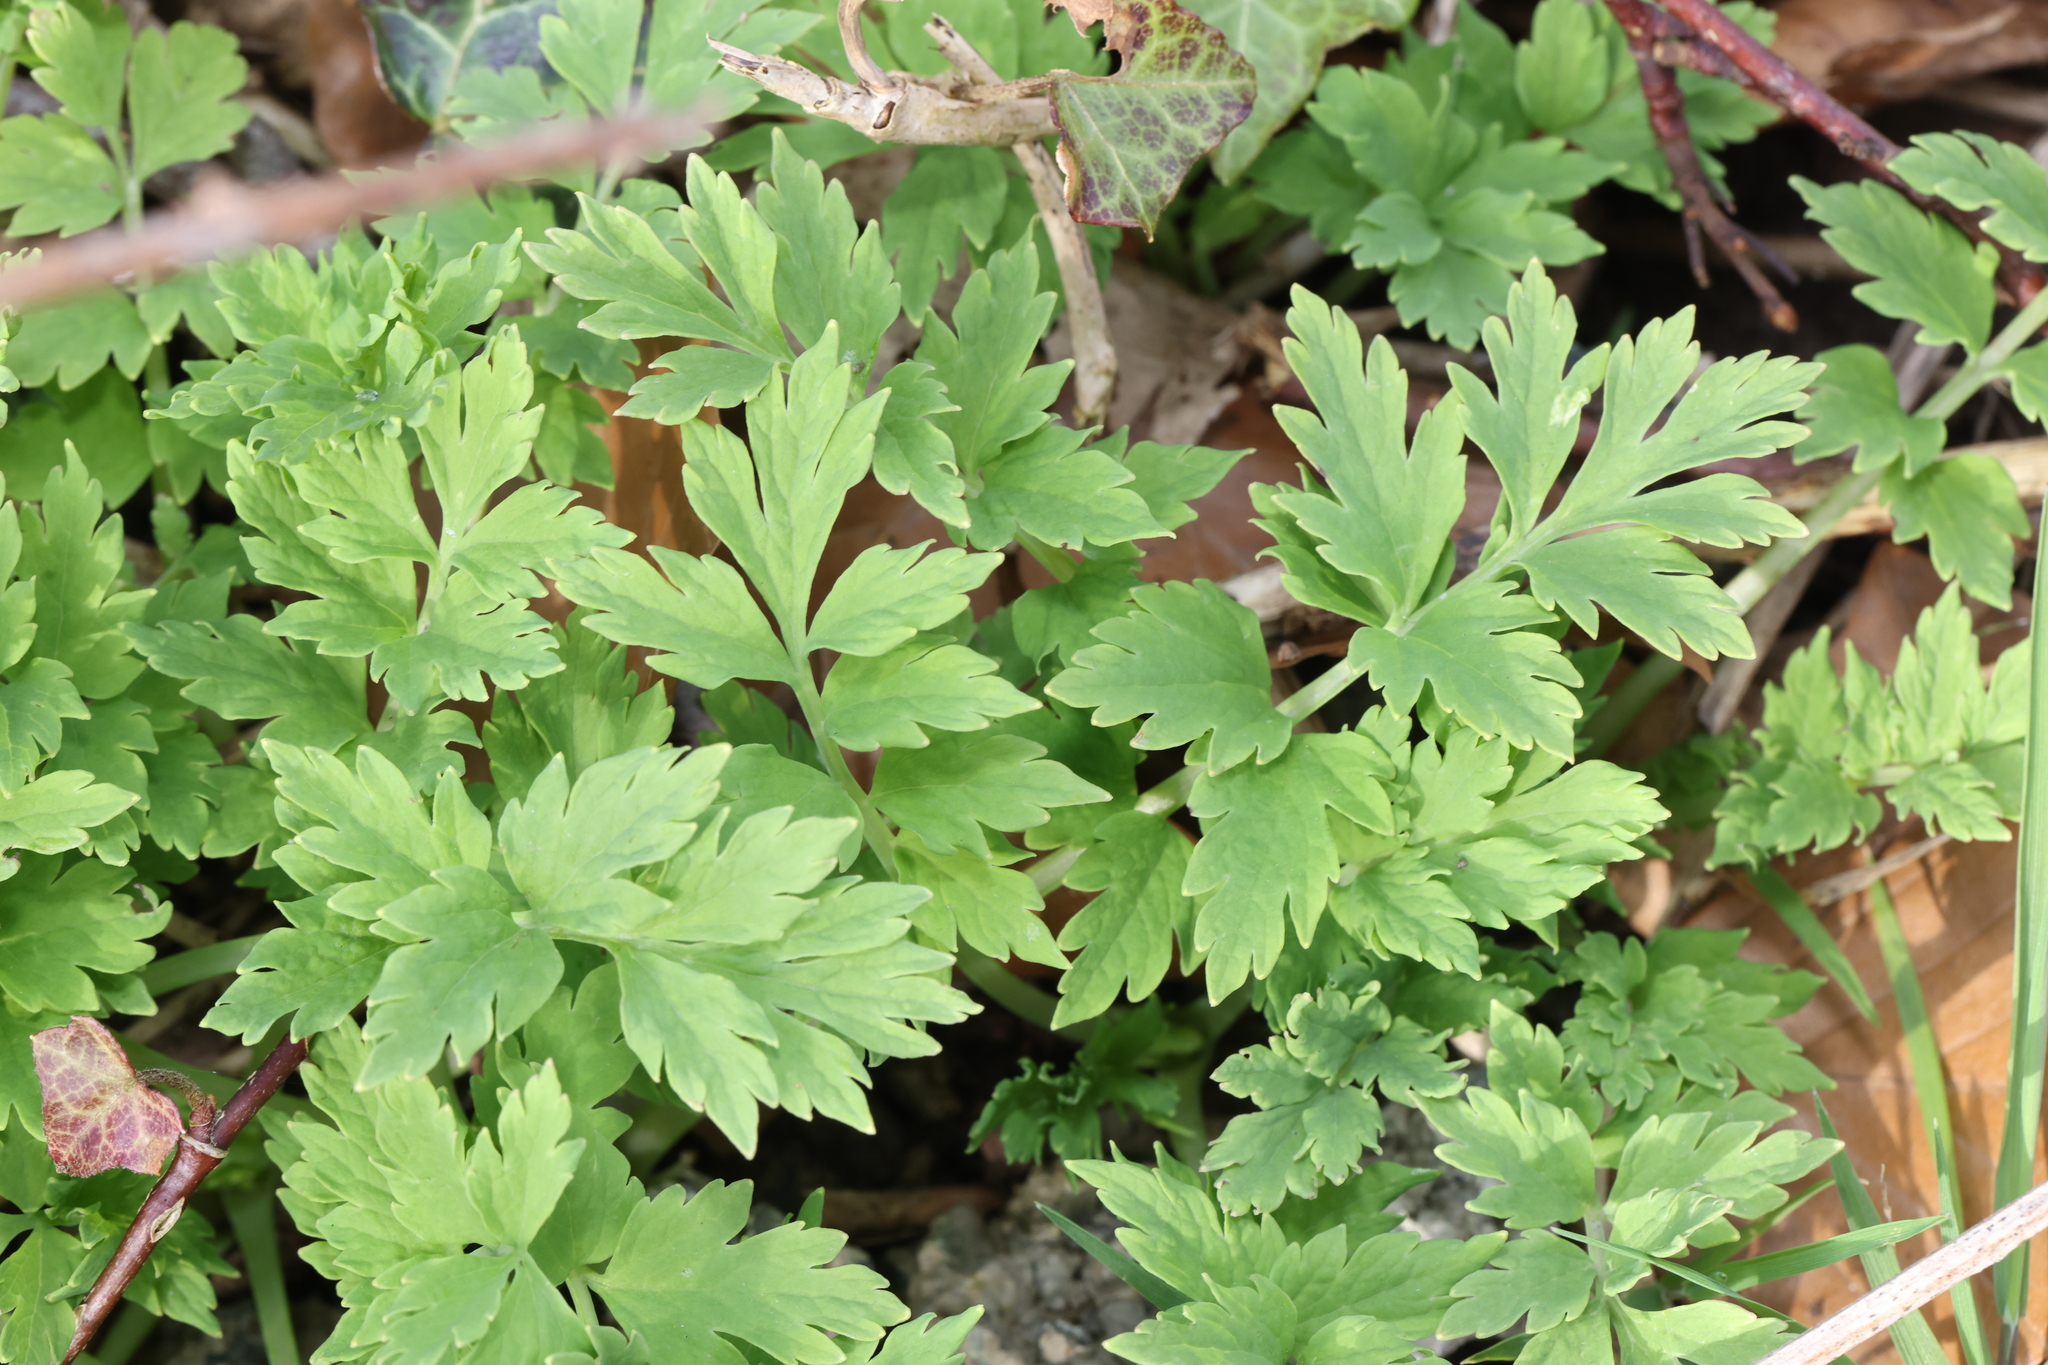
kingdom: Plantae
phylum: Tracheophyta
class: Magnoliopsida
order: Ranunculales
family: Papaveraceae
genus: Papaver
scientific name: Papaver cambricum
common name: Poppy
